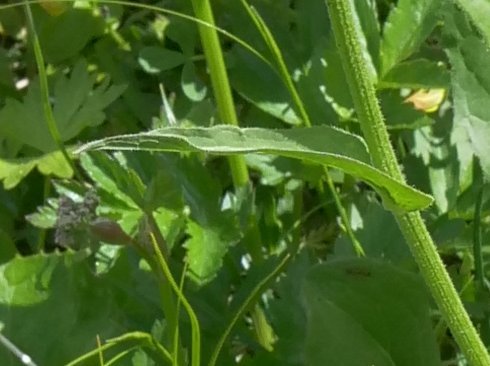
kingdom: Plantae
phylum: Tracheophyta
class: Magnoliopsida
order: Asterales
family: Asteraceae
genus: Crepis
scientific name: Crepis pontana
